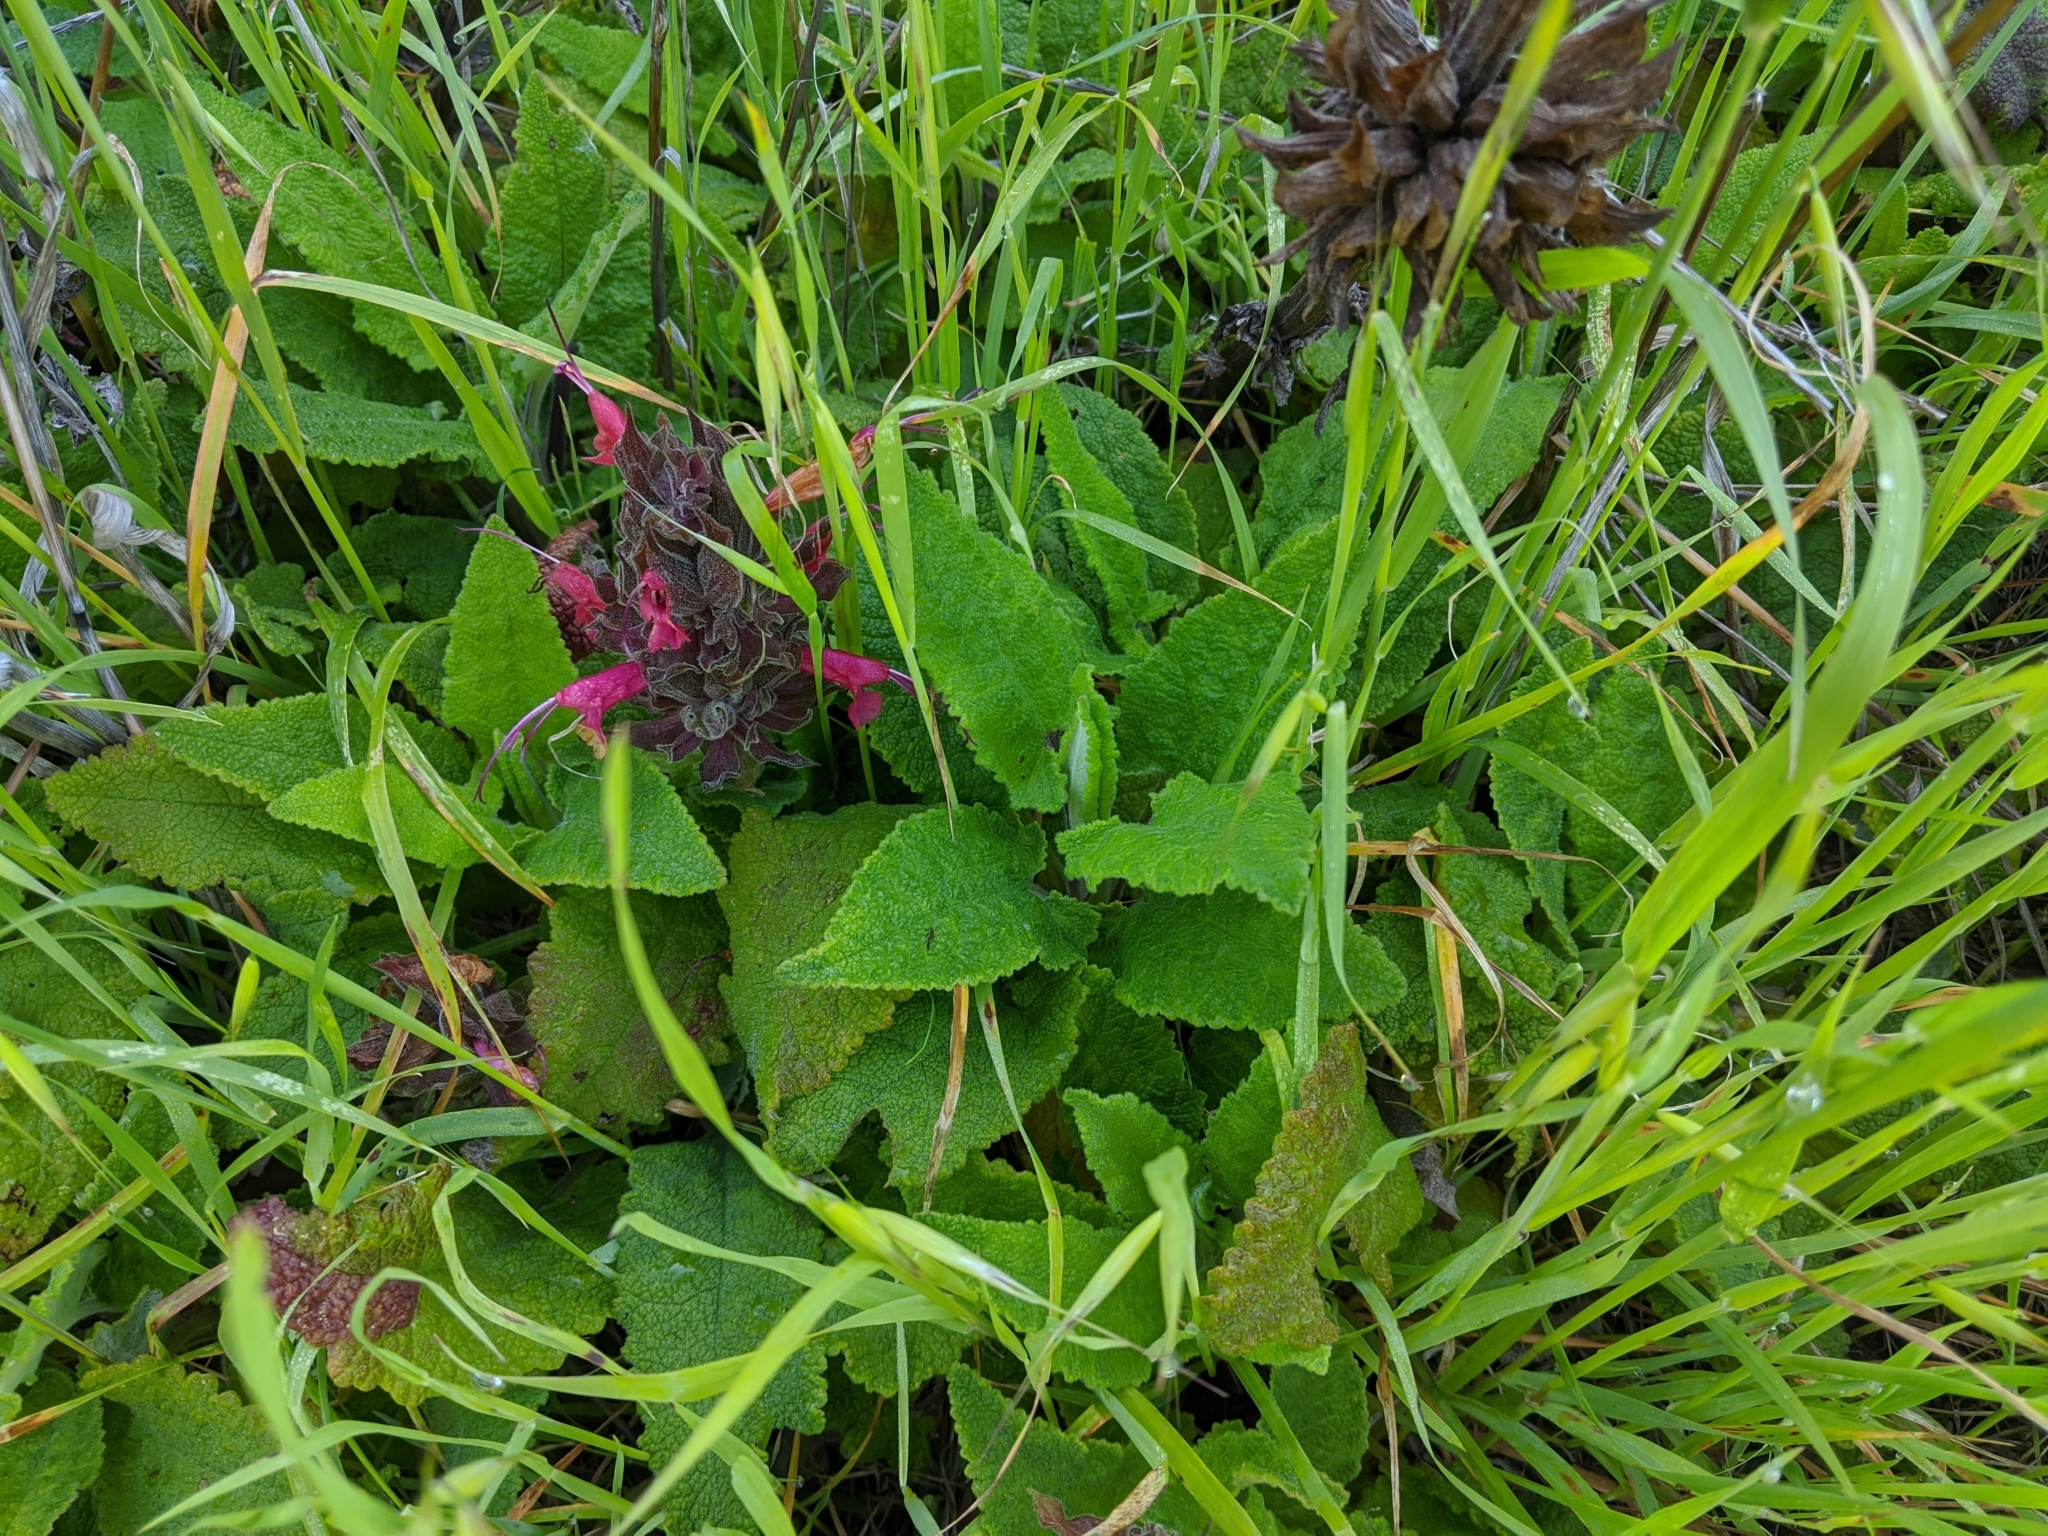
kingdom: Plantae
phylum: Tracheophyta
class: Magnoliopsida
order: Lamiales
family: Lamiaceae
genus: Salvia
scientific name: Salvia spathacea
